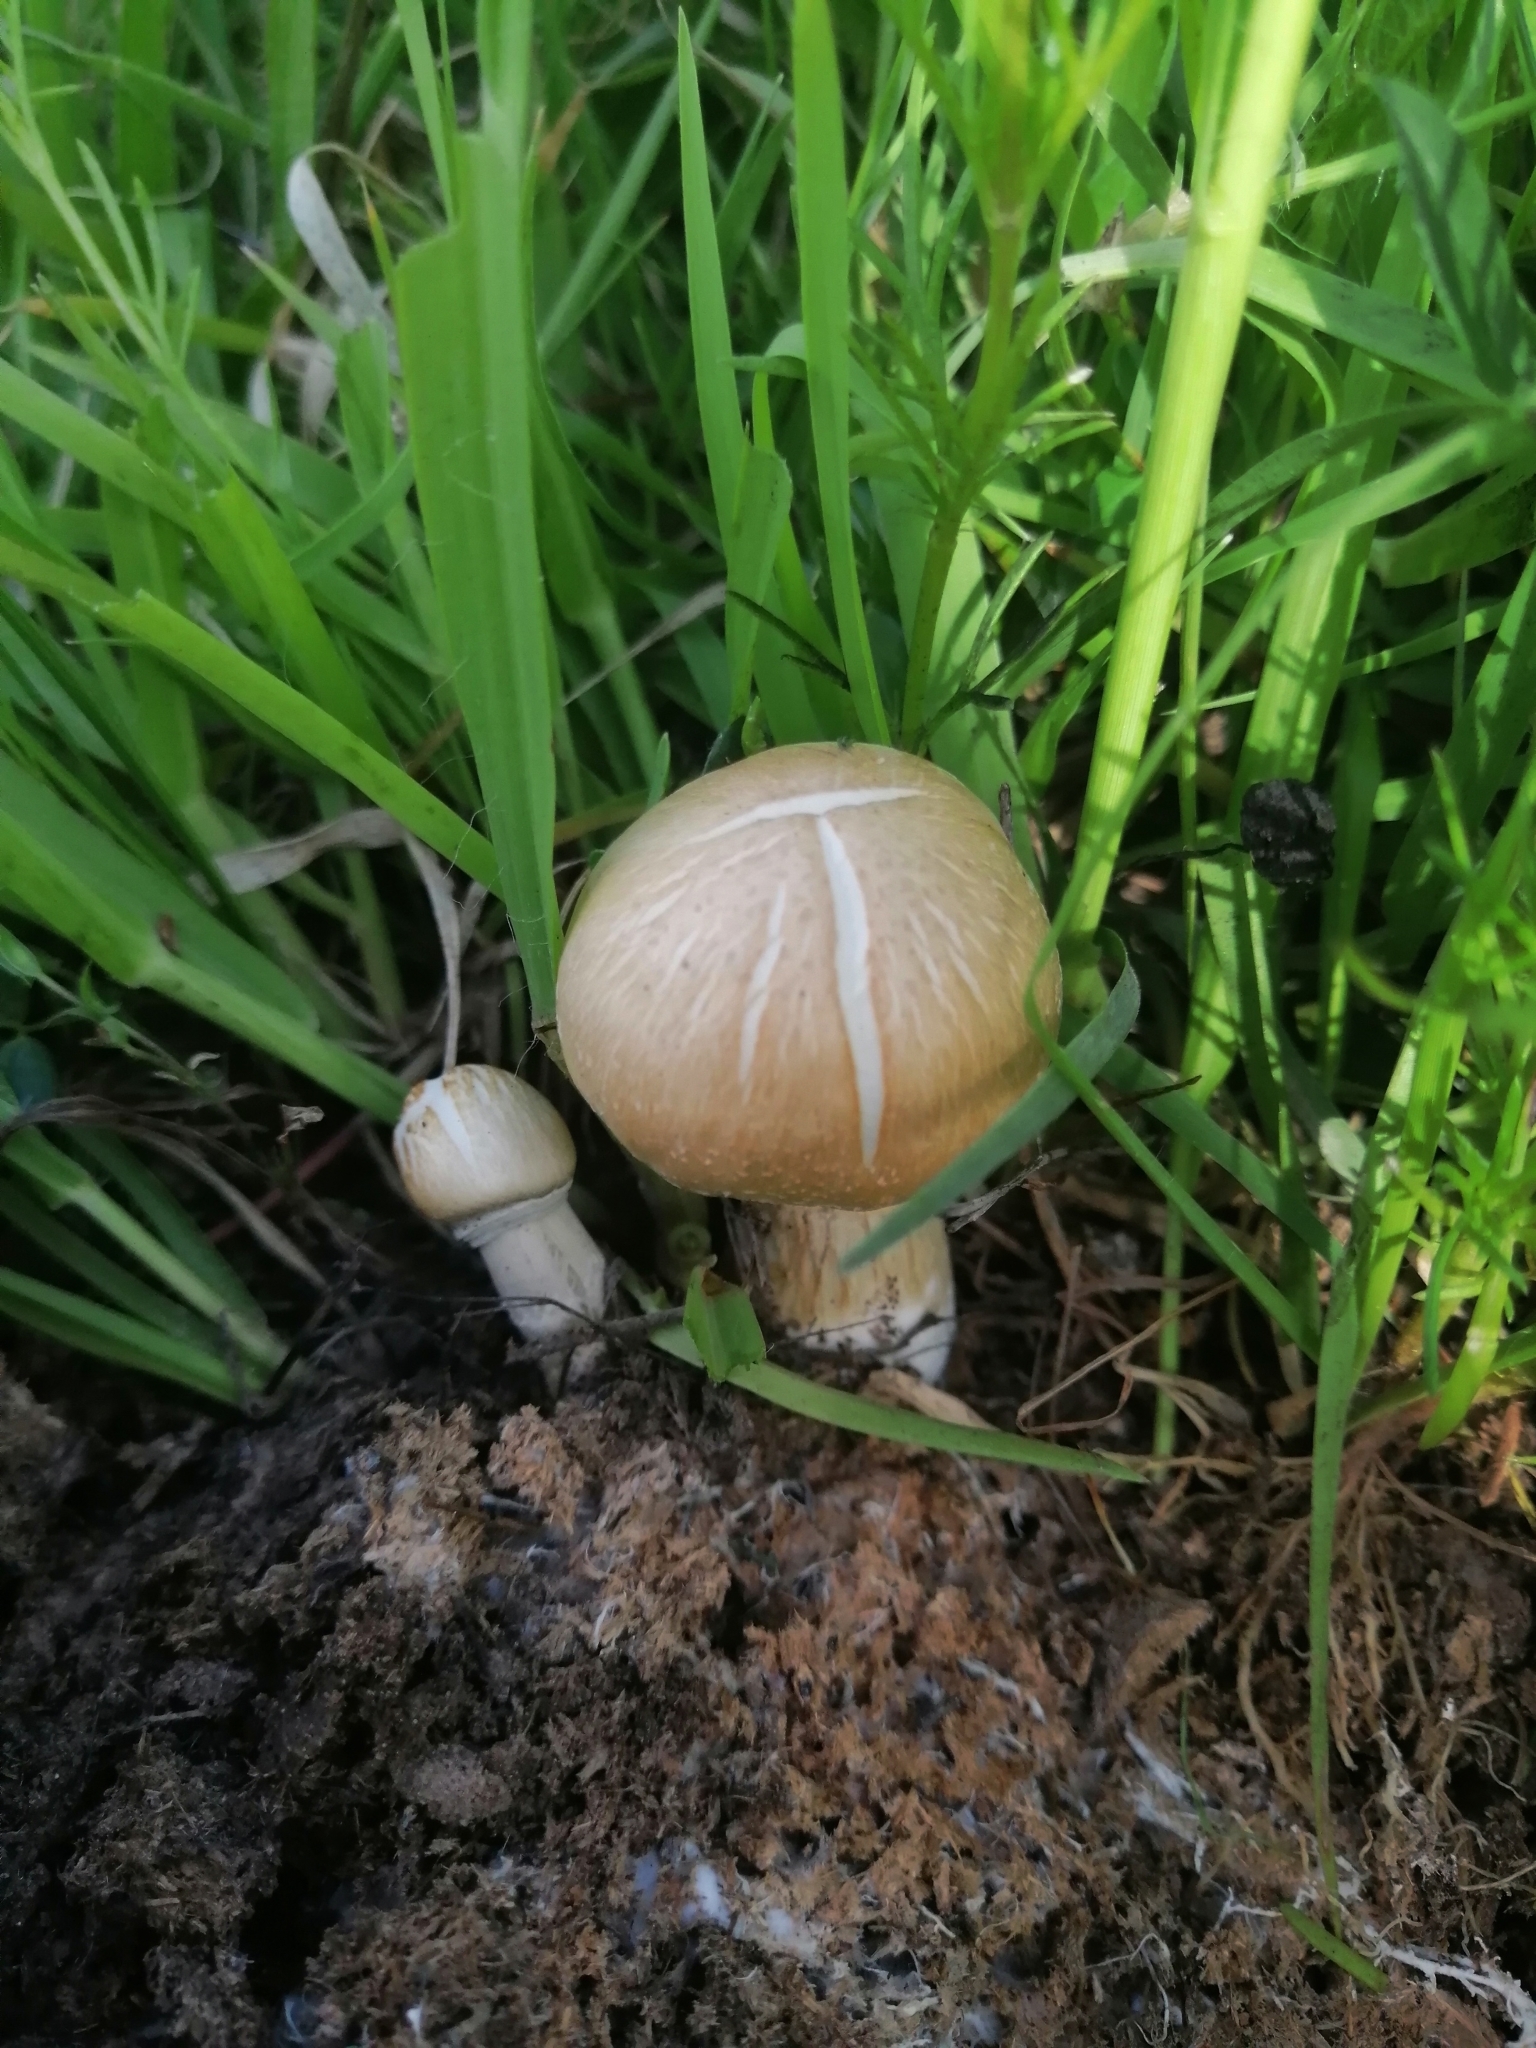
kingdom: Fungi
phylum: Basidiomycota
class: Agaricomycetes
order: Agaricales
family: Hymenogastraceae
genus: Psilocybe
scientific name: Psilocybe cubensis
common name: Golden brownie
